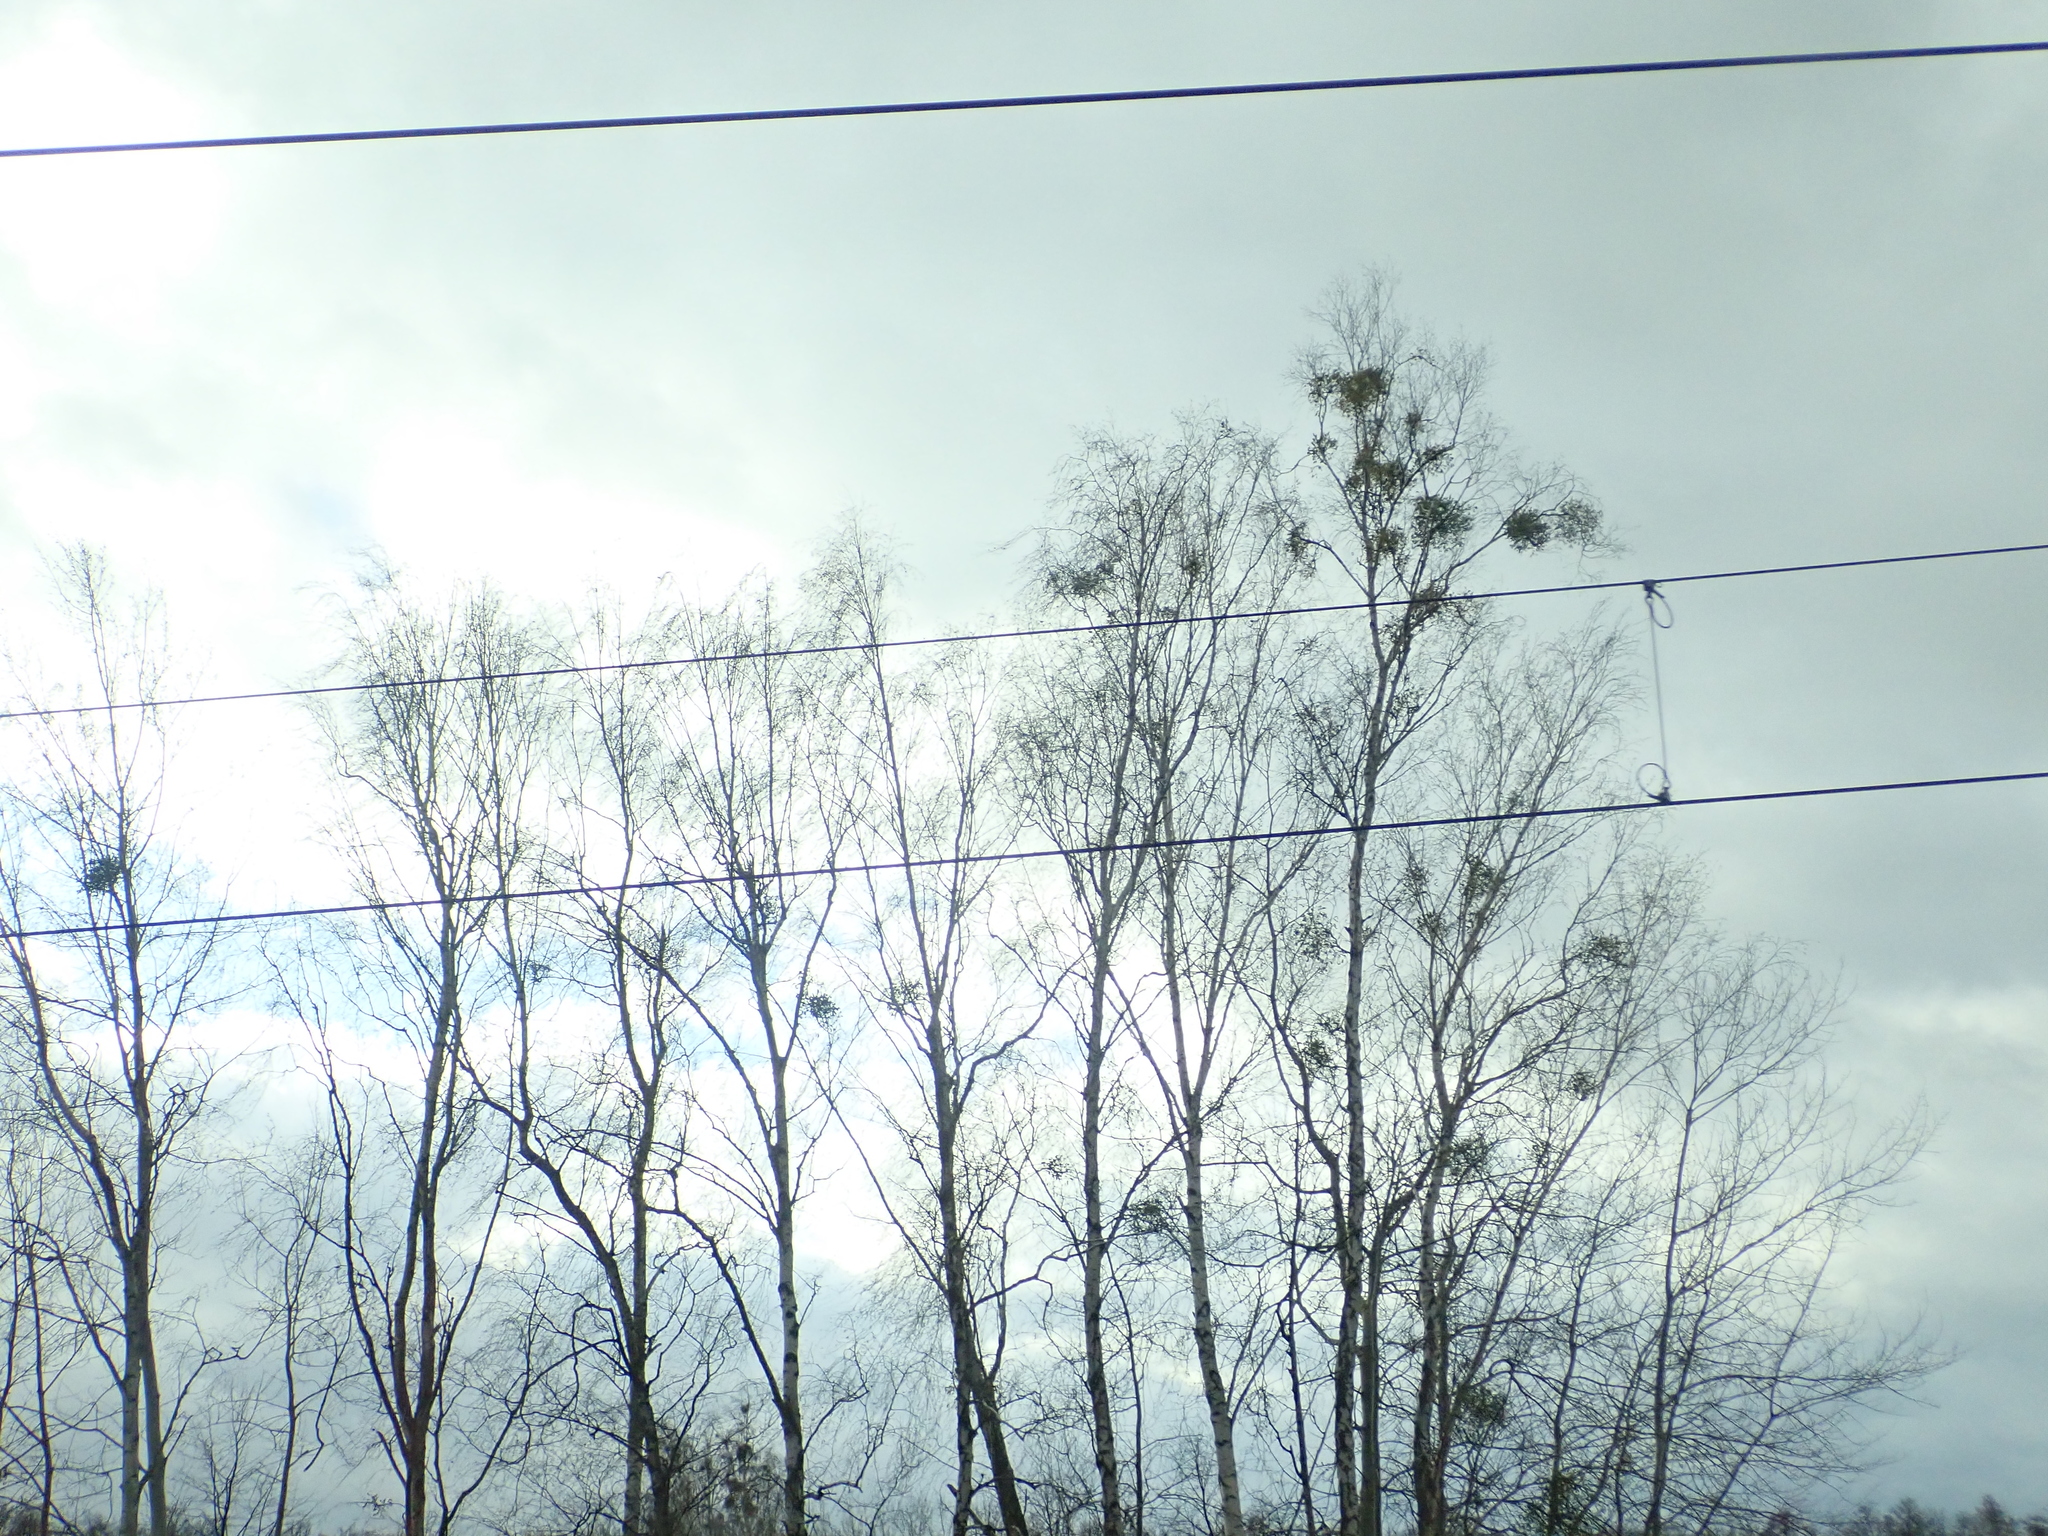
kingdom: Plantae
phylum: Tracheophyta
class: Magnoliopsida
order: Santalales
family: Viscaceae
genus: Viscum
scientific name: Viscum album
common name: Mistletoe
